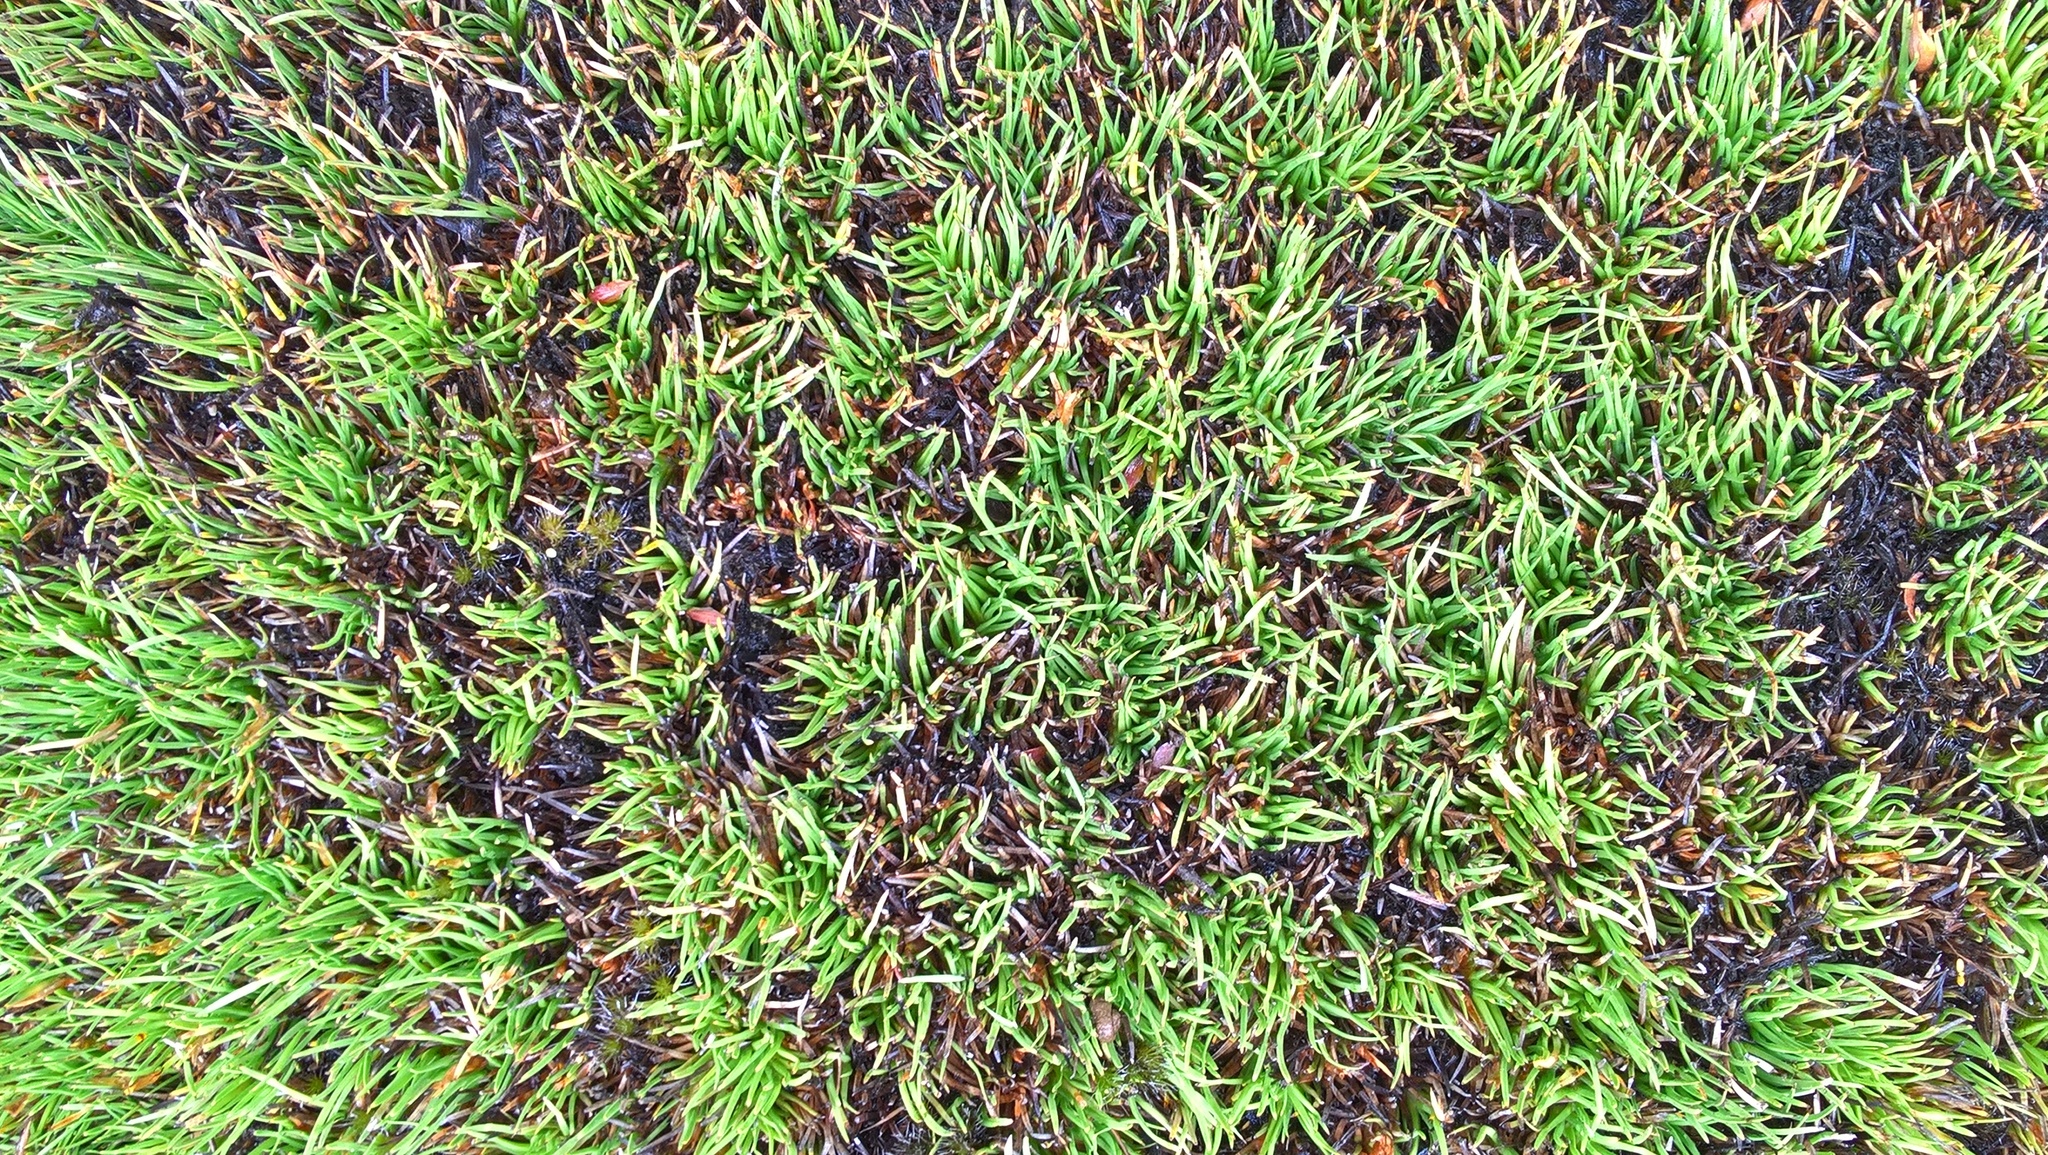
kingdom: Plantae
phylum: Tracheophyta
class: Liliopsida
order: Poales
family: Cyperaceae
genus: Oreobolus
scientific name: Oreobolus pectinatus
